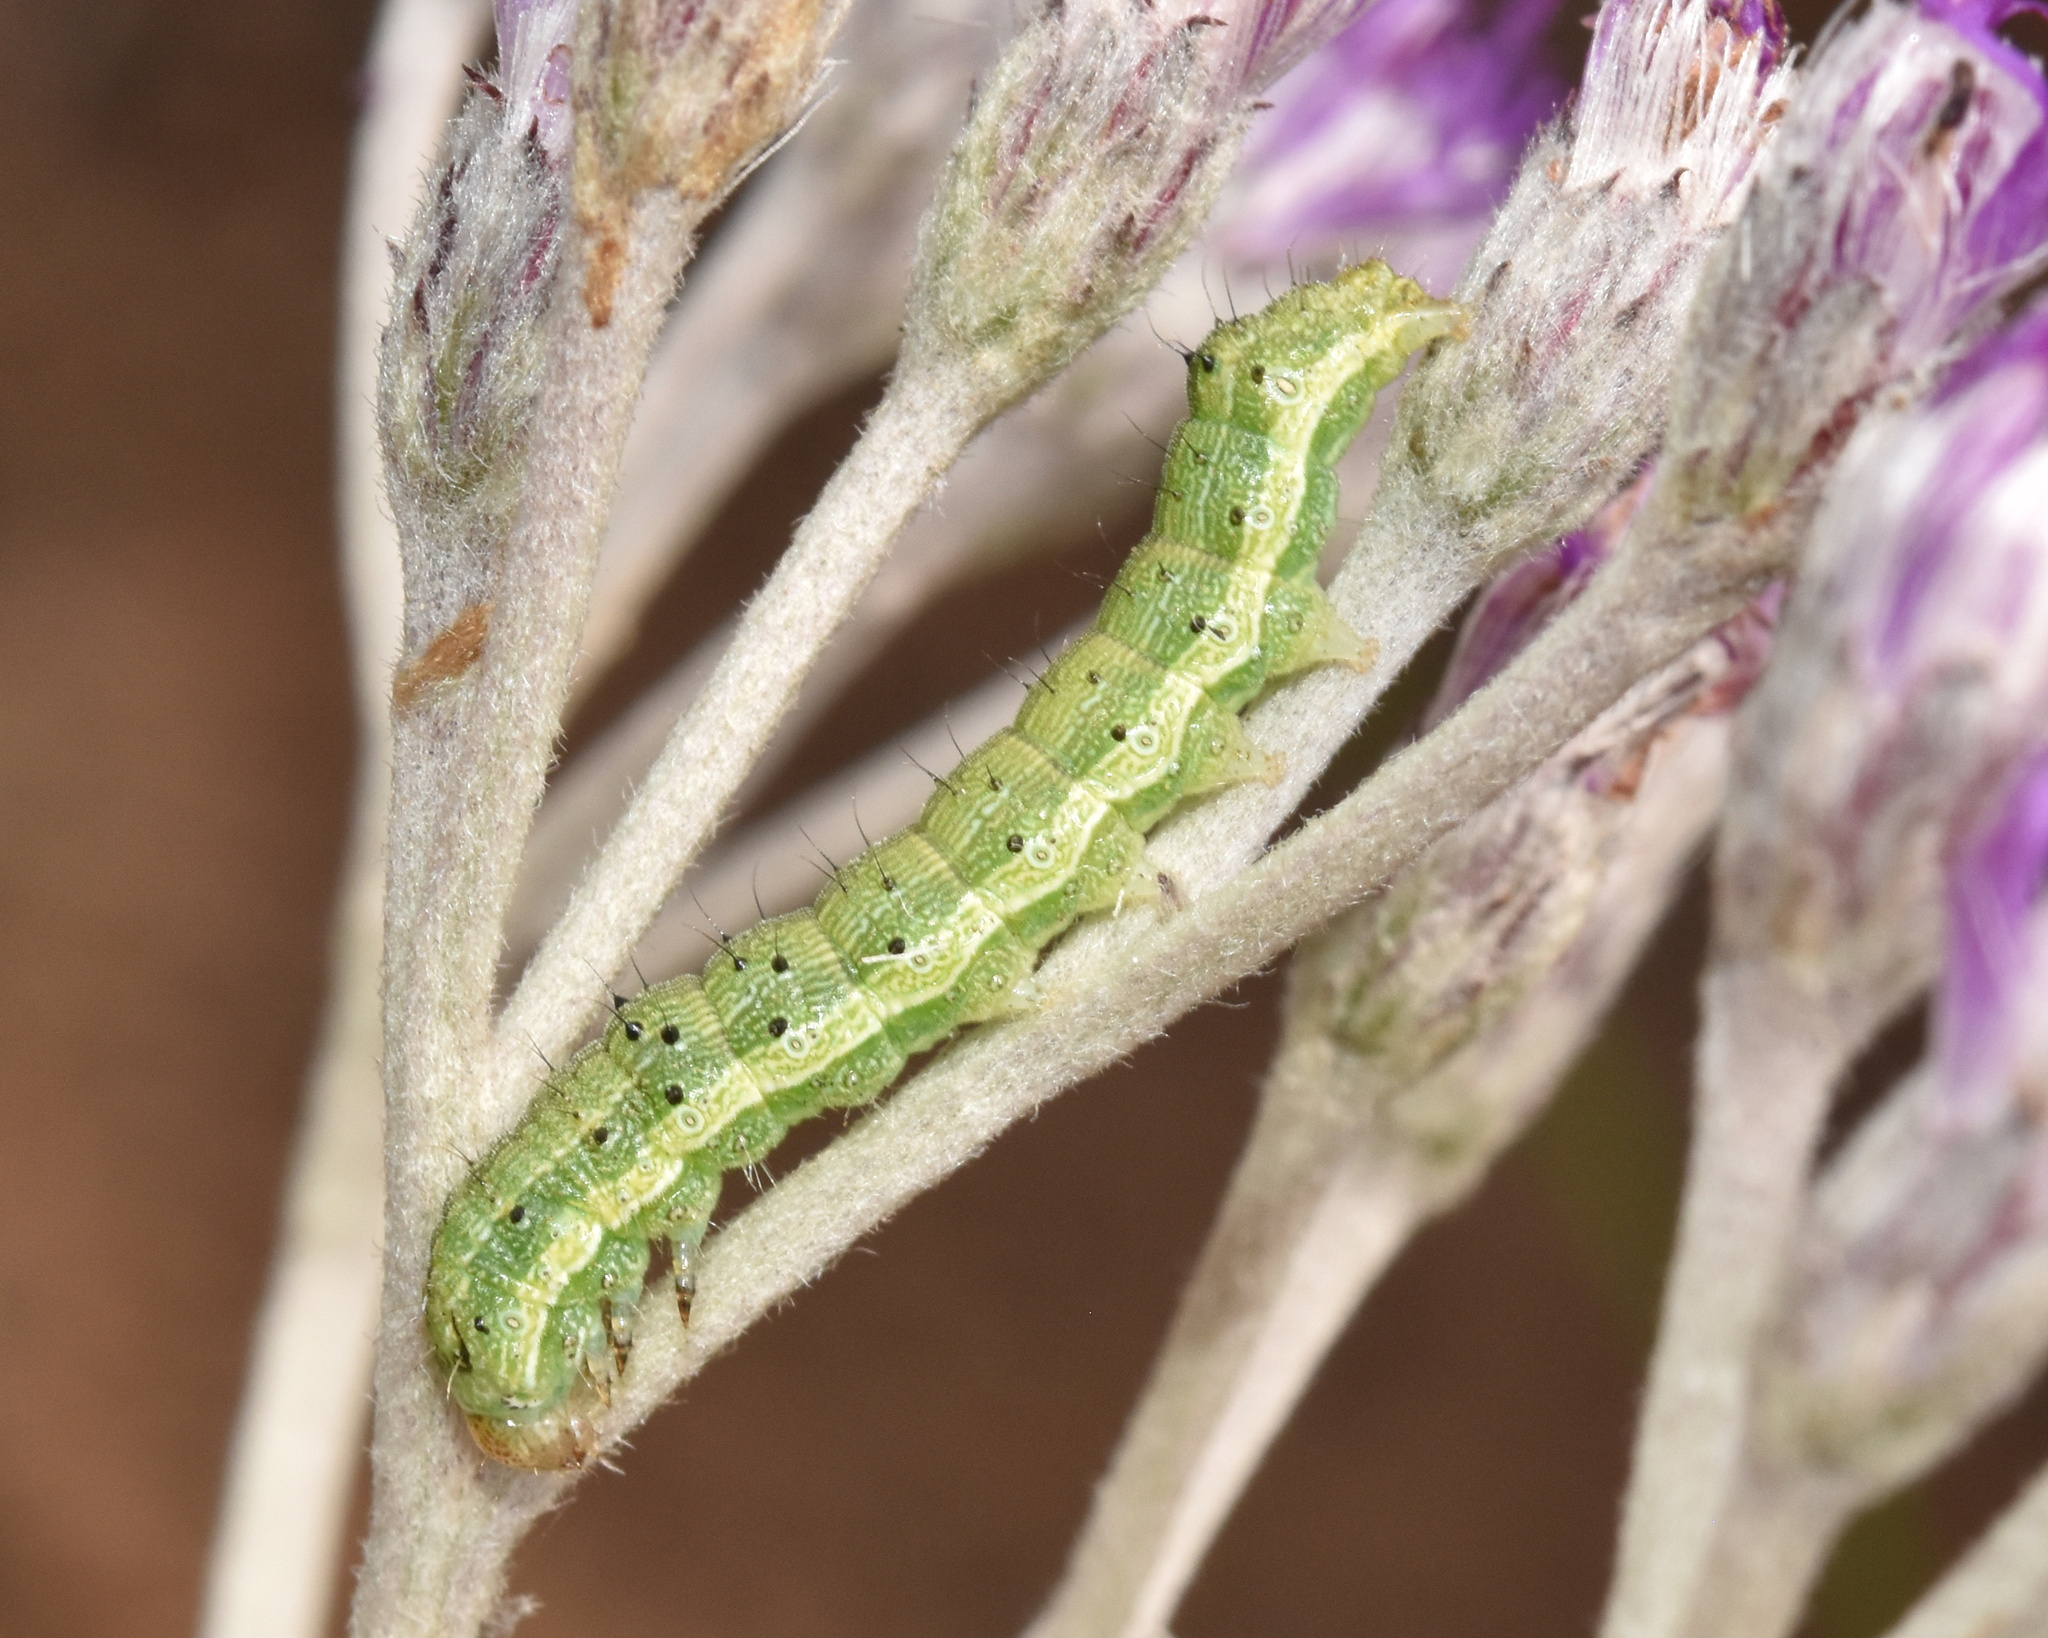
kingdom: Animalia
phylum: Arthropoda
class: Insecta
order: Lepidoptera
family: Noctuidae
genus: Helicoverpa
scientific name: Helicoverpa armigera
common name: Cotton bollworm
